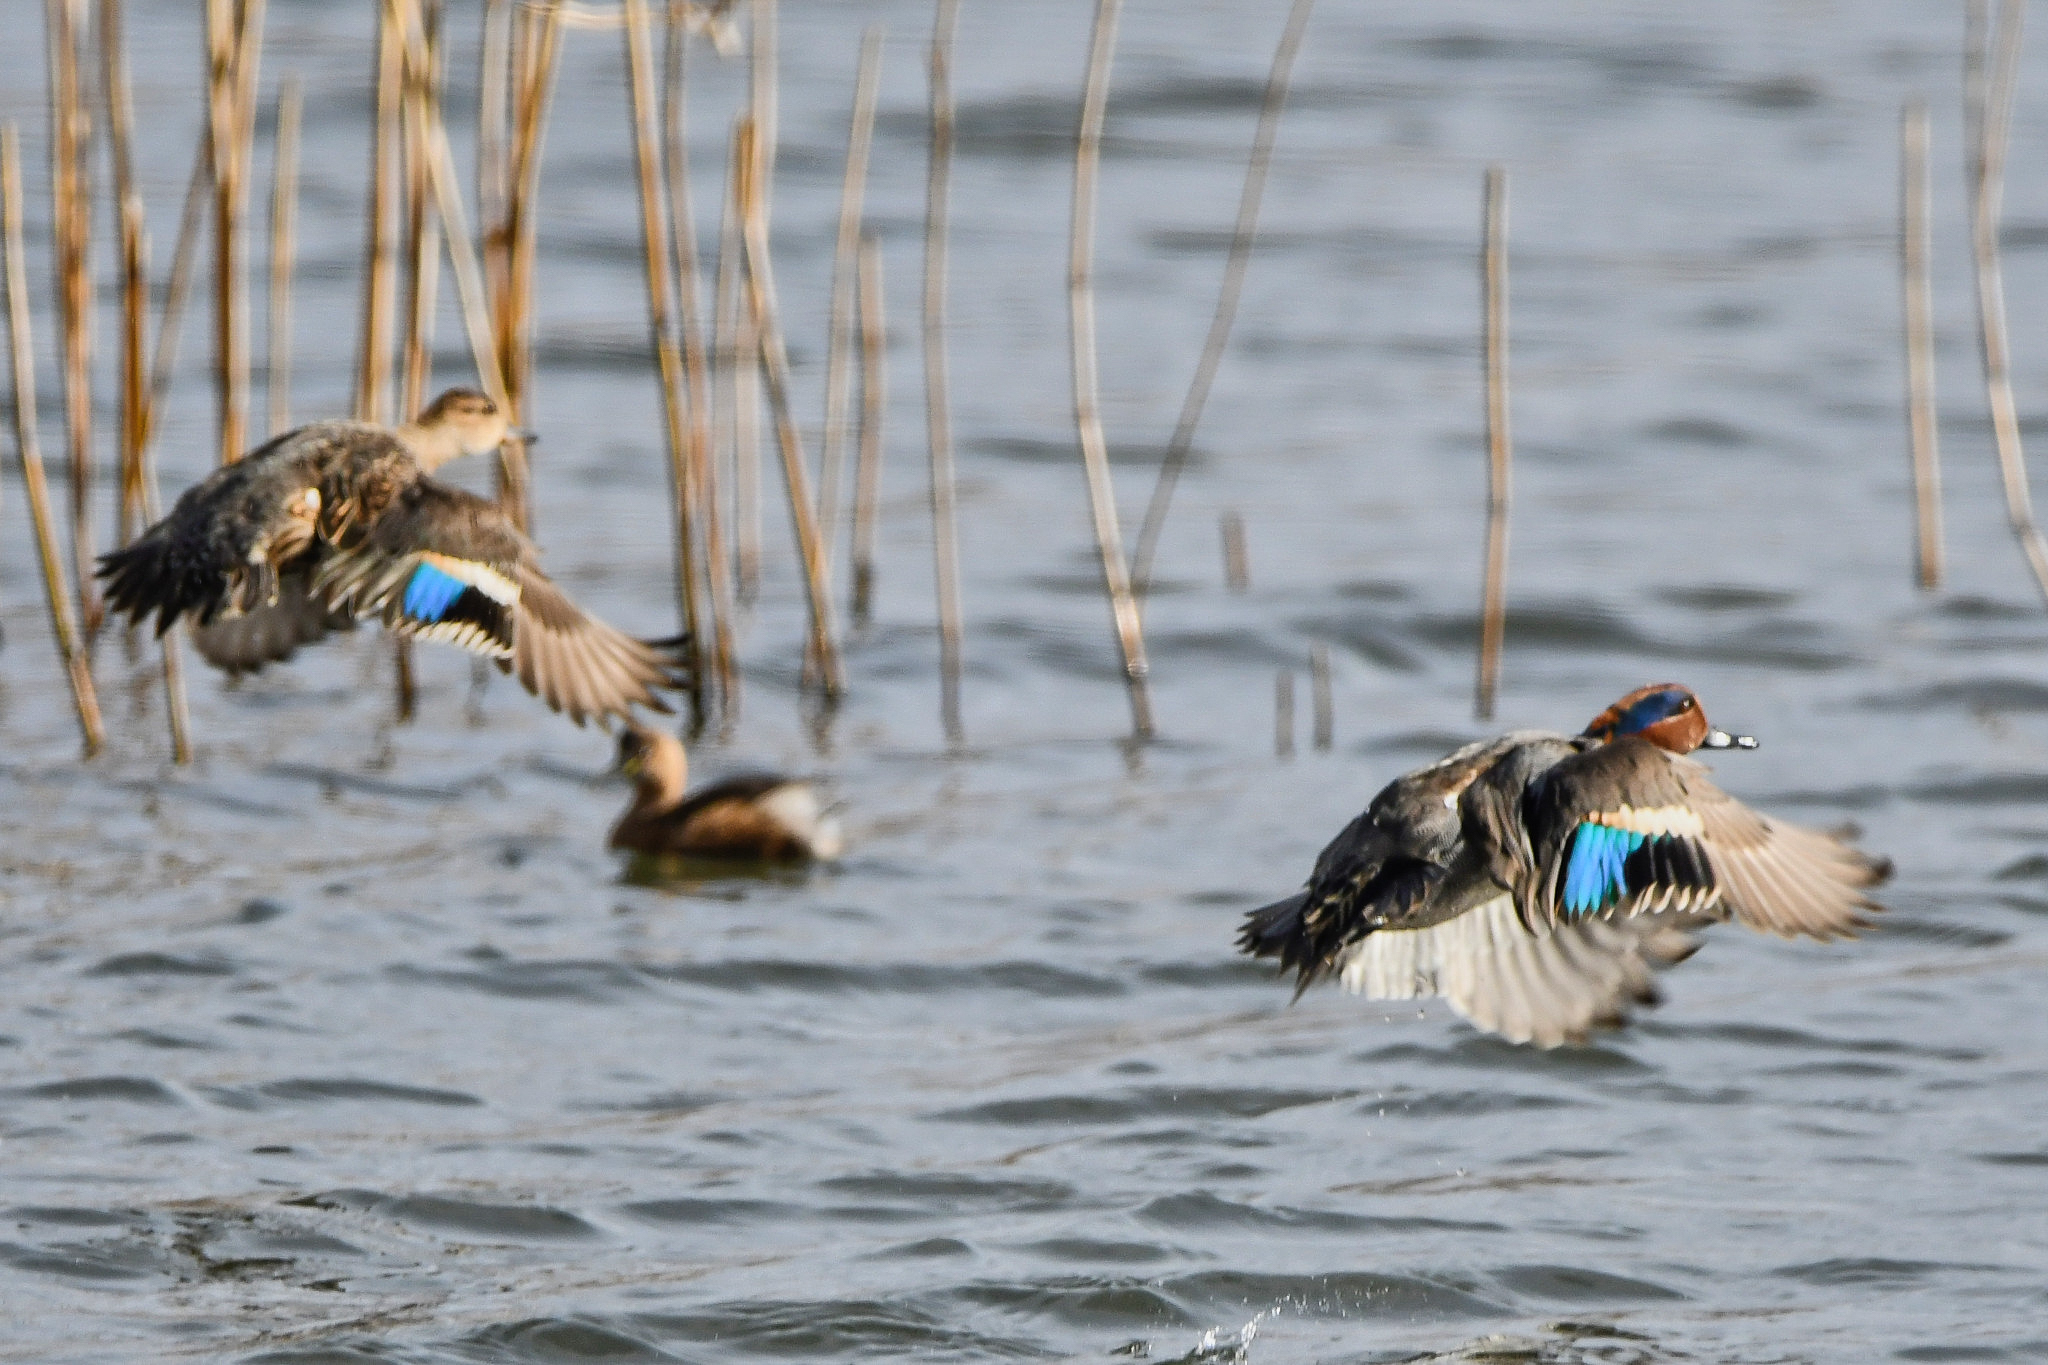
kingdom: Animalia
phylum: Chordata
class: Aves
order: Anseriformes
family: Anatidae
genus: Anas
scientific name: Anas crecca
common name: Eurasian teal
